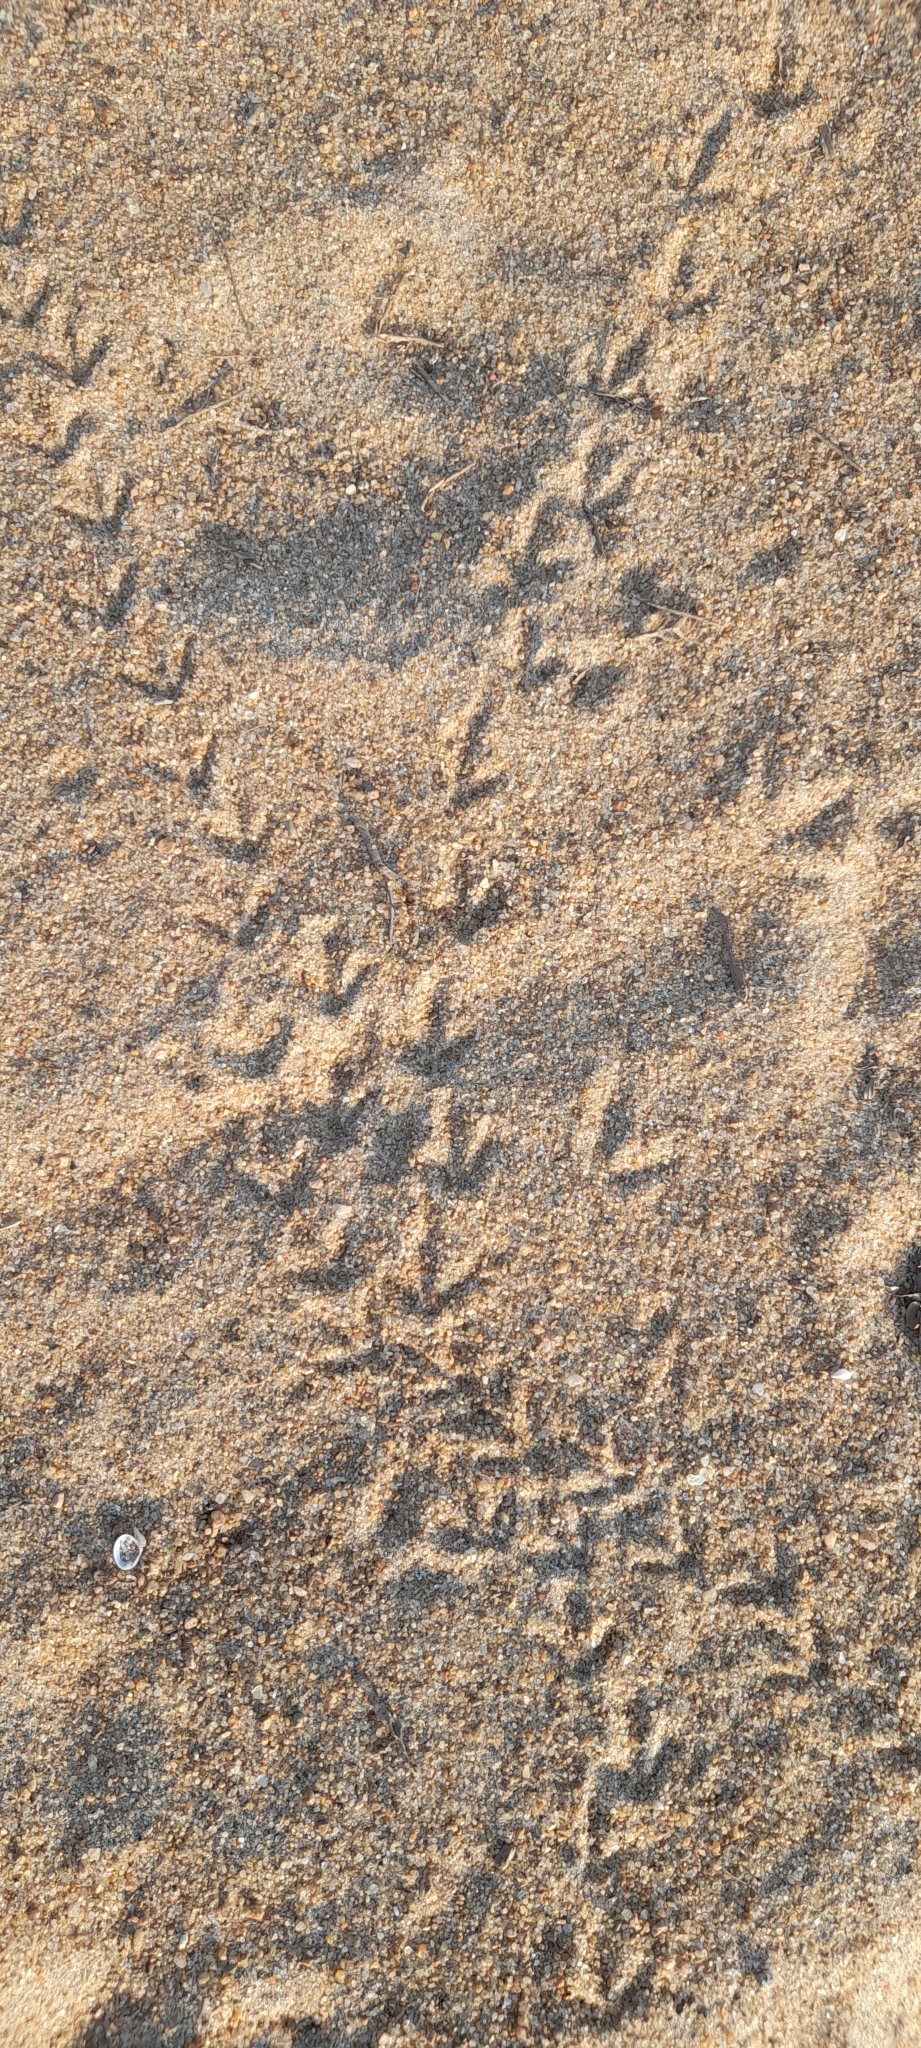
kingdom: Animalia
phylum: Chordata
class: Aves
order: Pteroclidiformes
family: Pteroclididae
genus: Pterocles
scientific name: Pterocles exustus
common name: Chestnut-bellied sandgrouse
